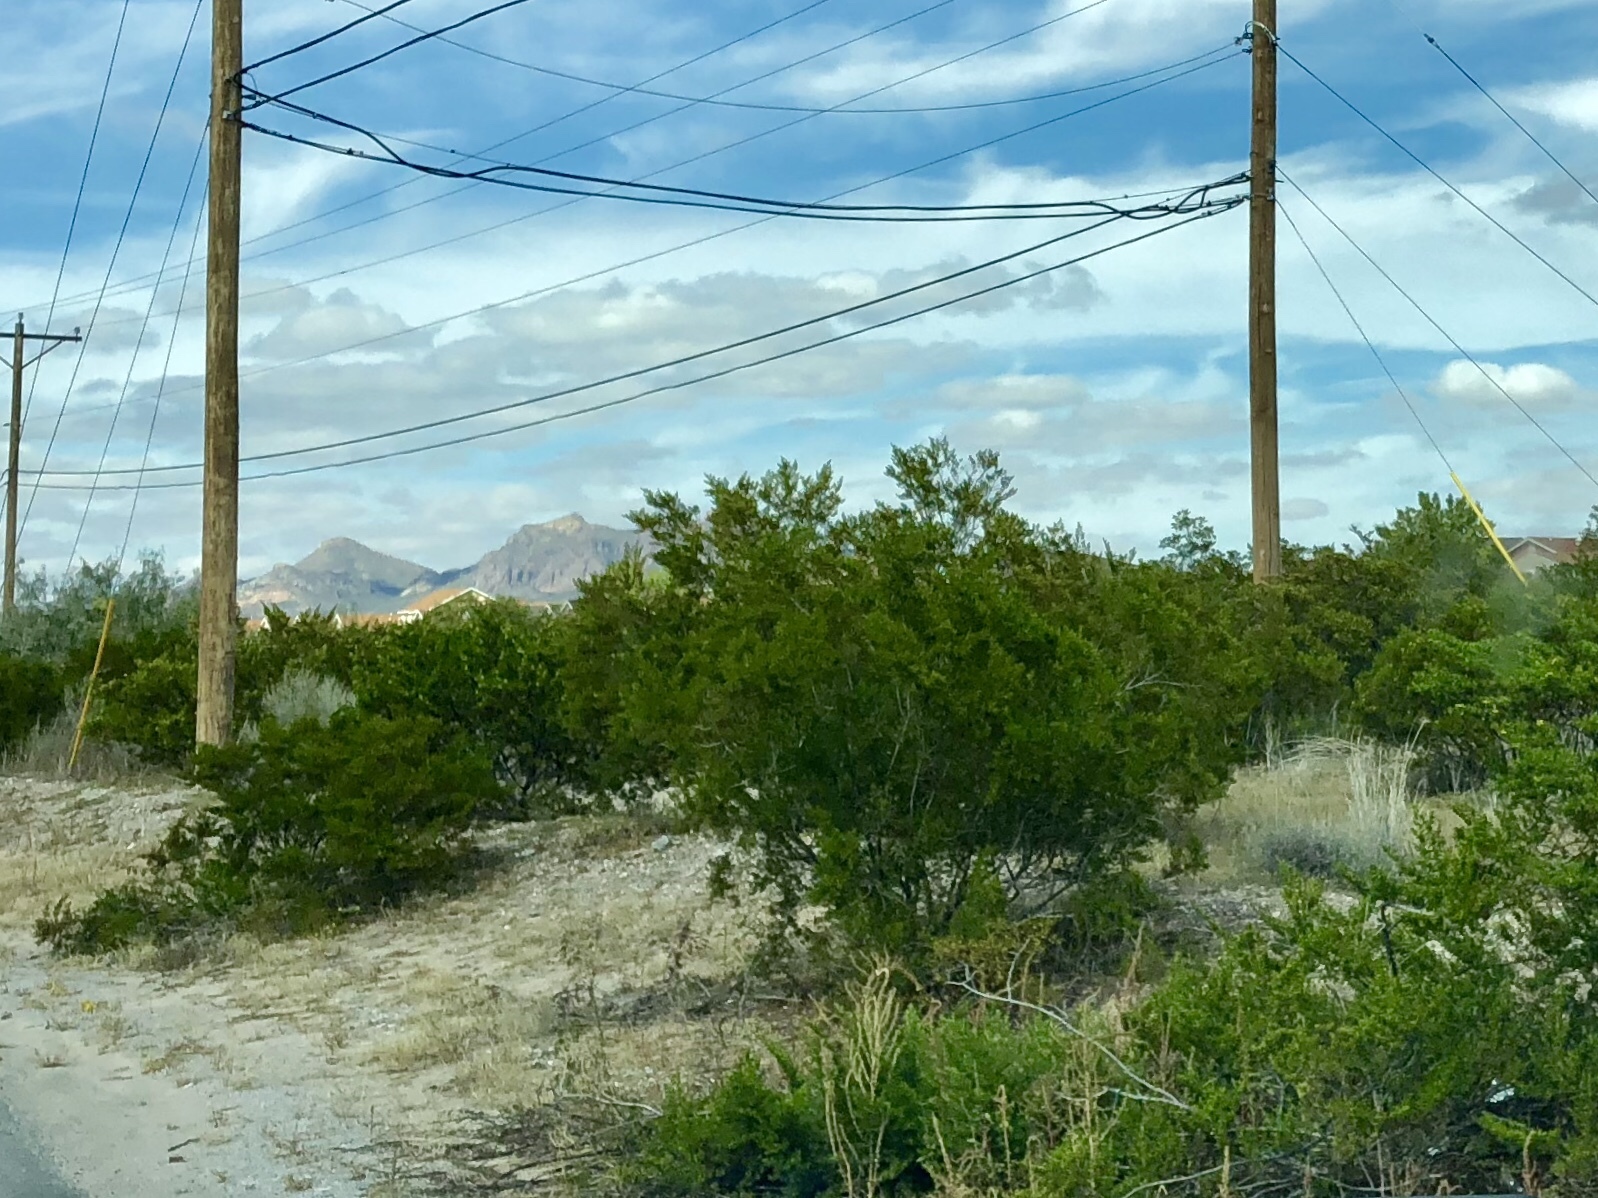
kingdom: Plantae
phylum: Tracheophyta
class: Magnoliopsida
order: Zygophyllales
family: Zygophyllaceae
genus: Larrea
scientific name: Larrea tridentata
